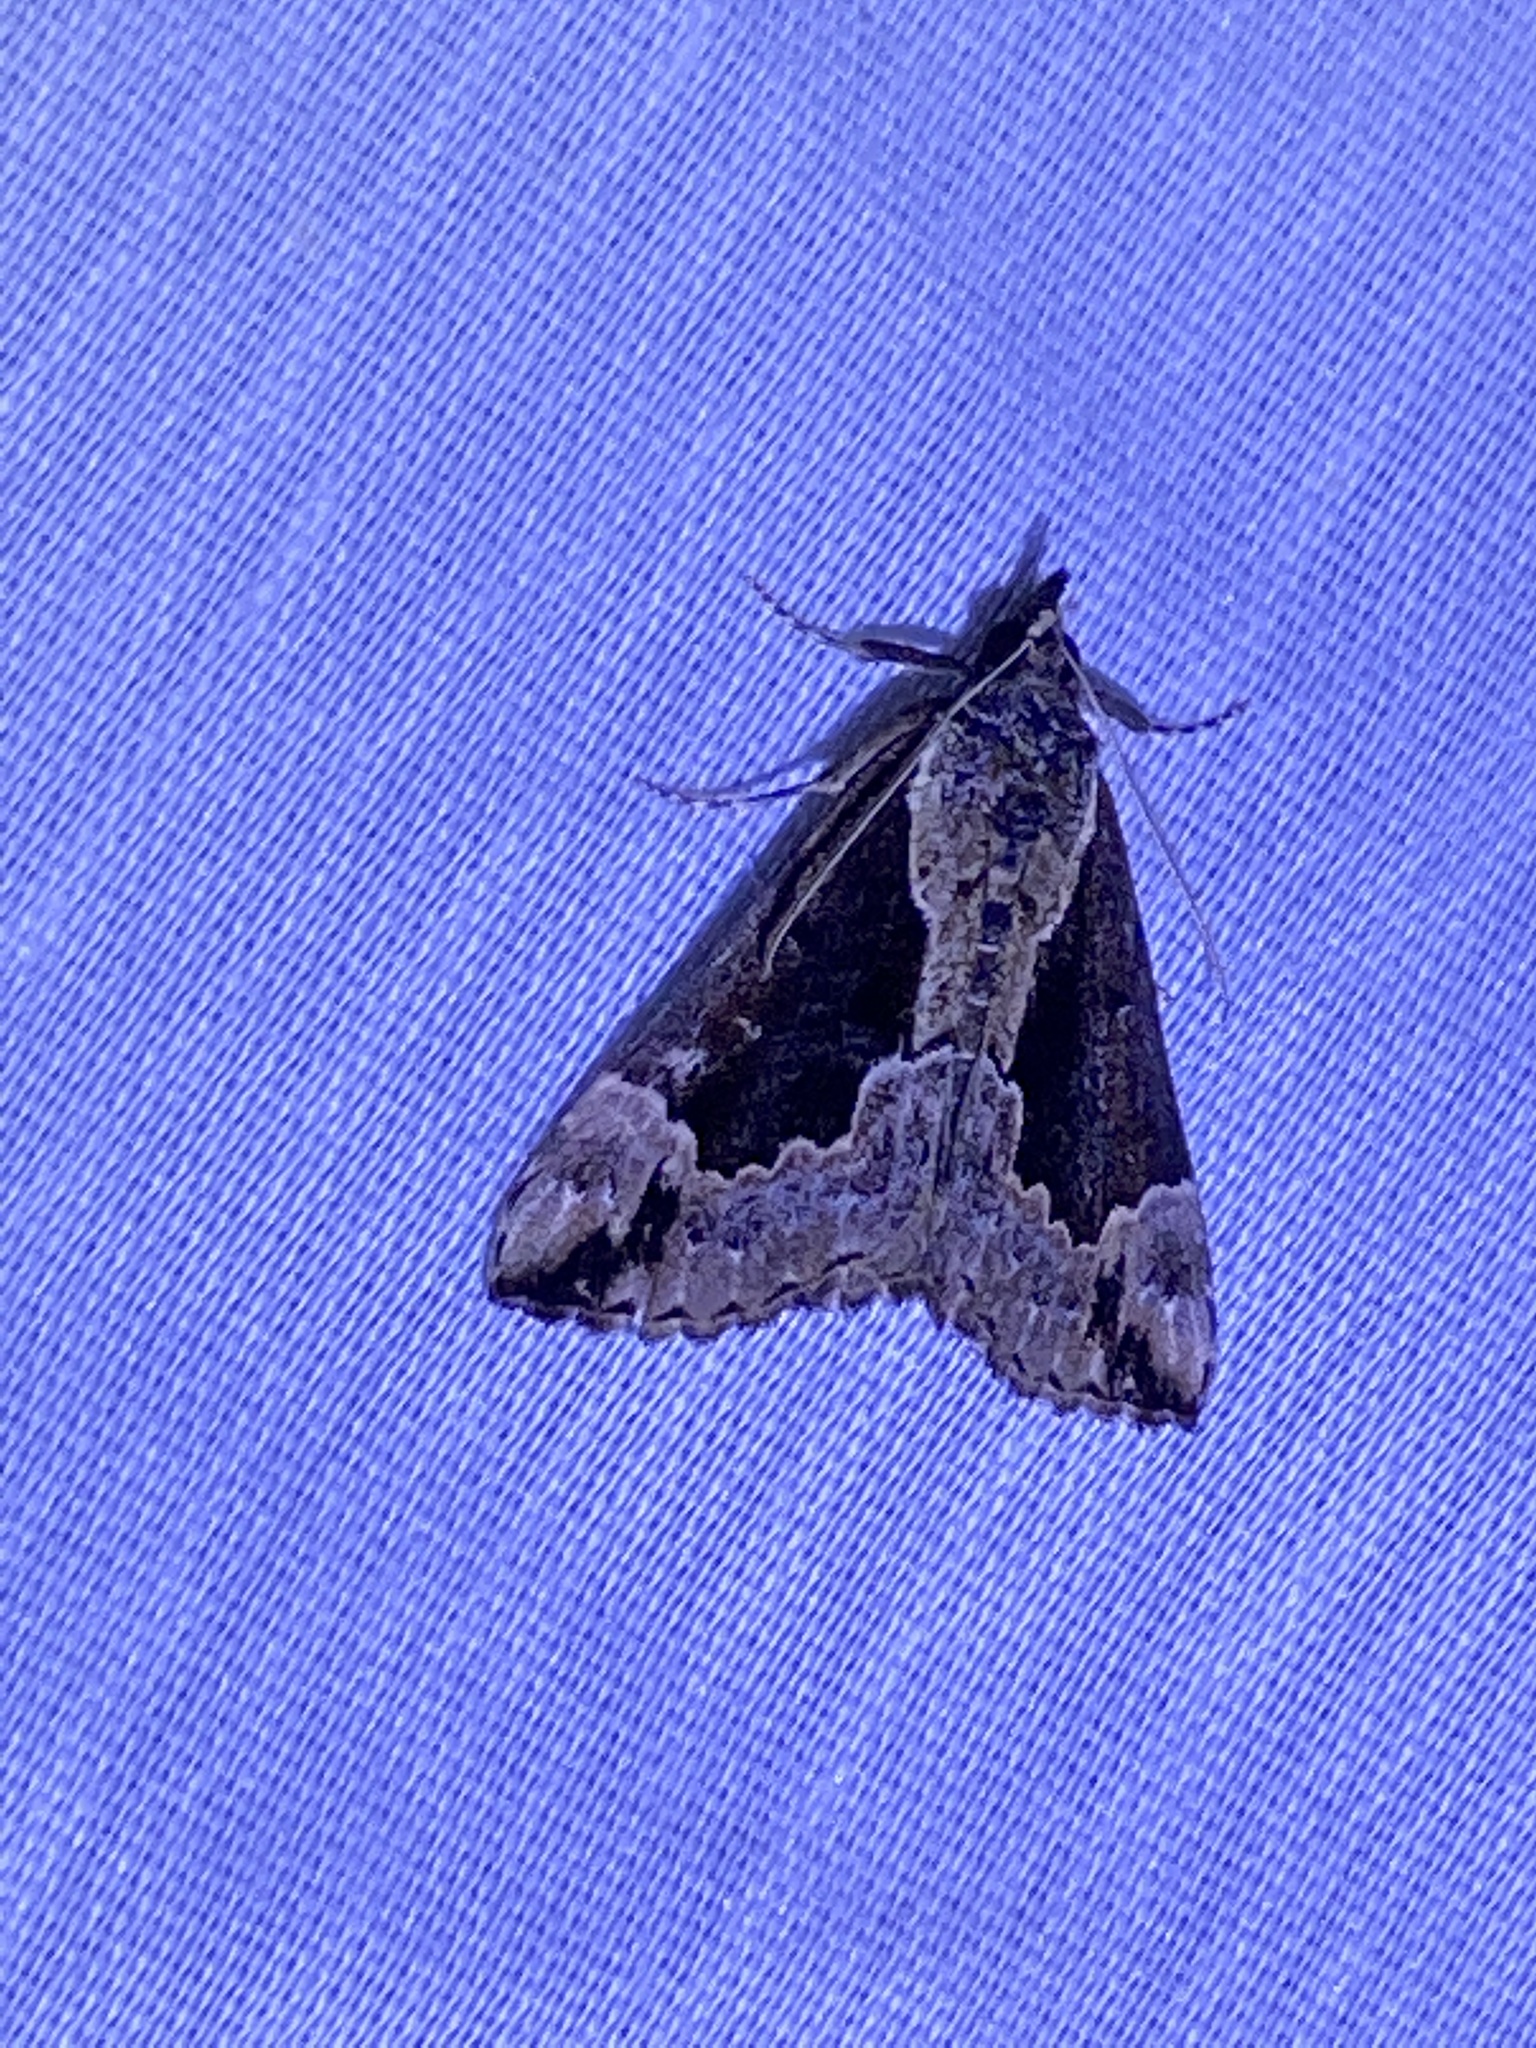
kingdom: Animalia
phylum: Arthropoda
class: Insecta
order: Lepidoptera
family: Erebidae
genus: Hypena
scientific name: Hypena baltimoralis
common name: Baltimore snout
